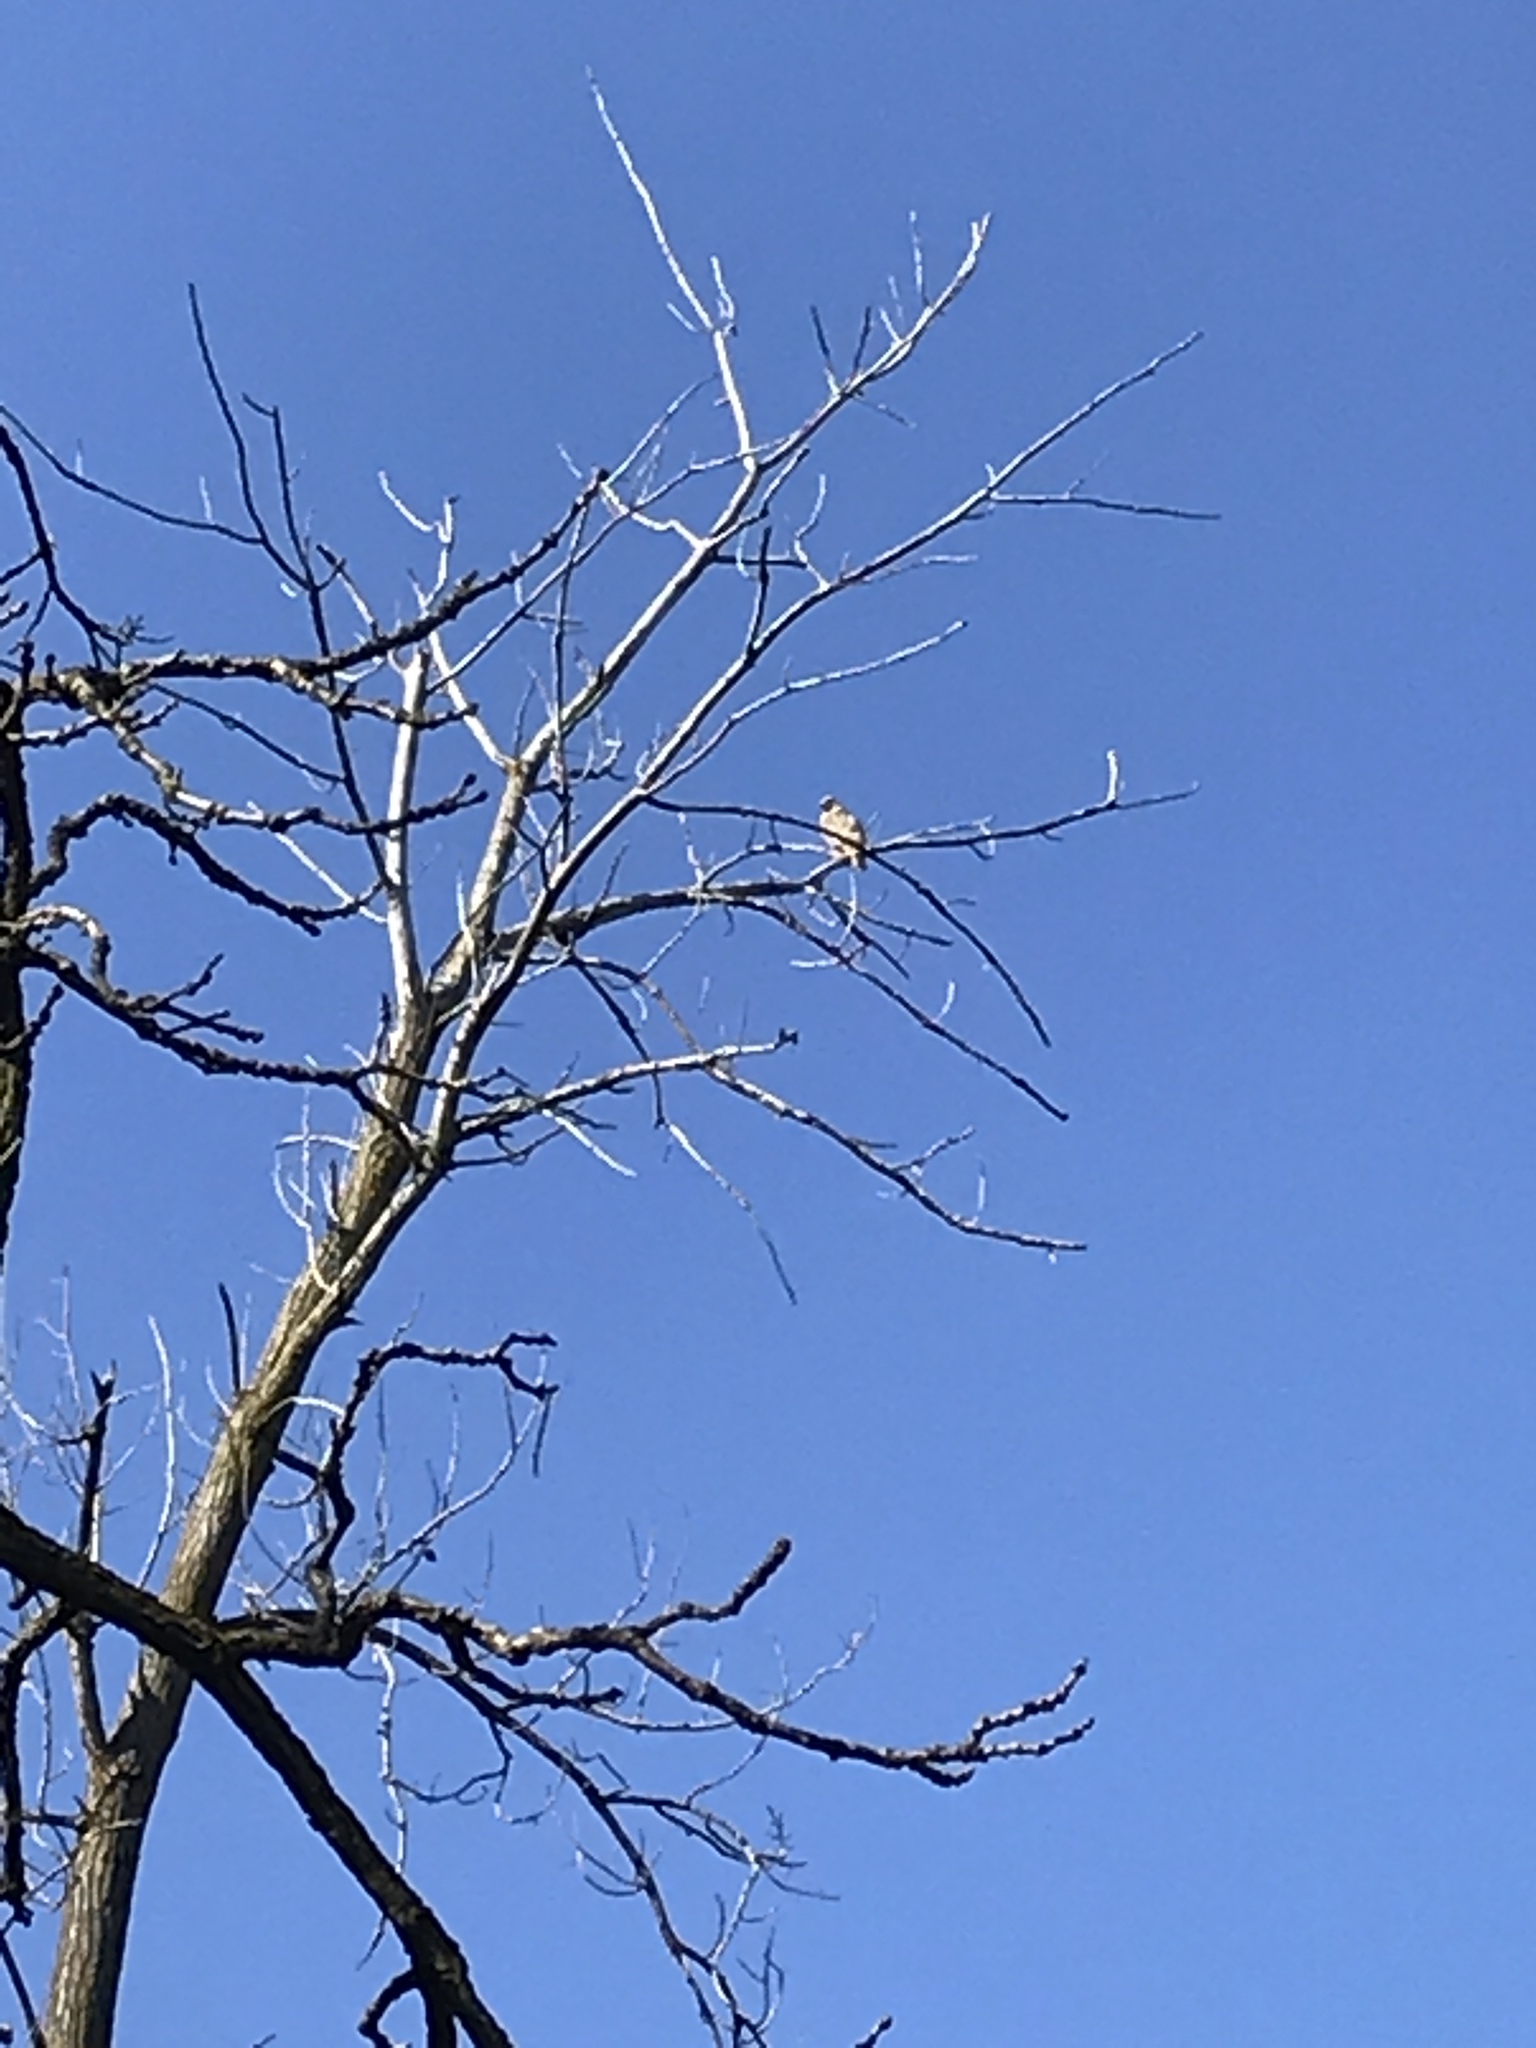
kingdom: Animalia
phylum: Chordata
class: Aves
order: Accipitriformes
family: Accipitridae
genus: Buteo
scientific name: Buteo lineatus
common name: Red-shouldered hawk
